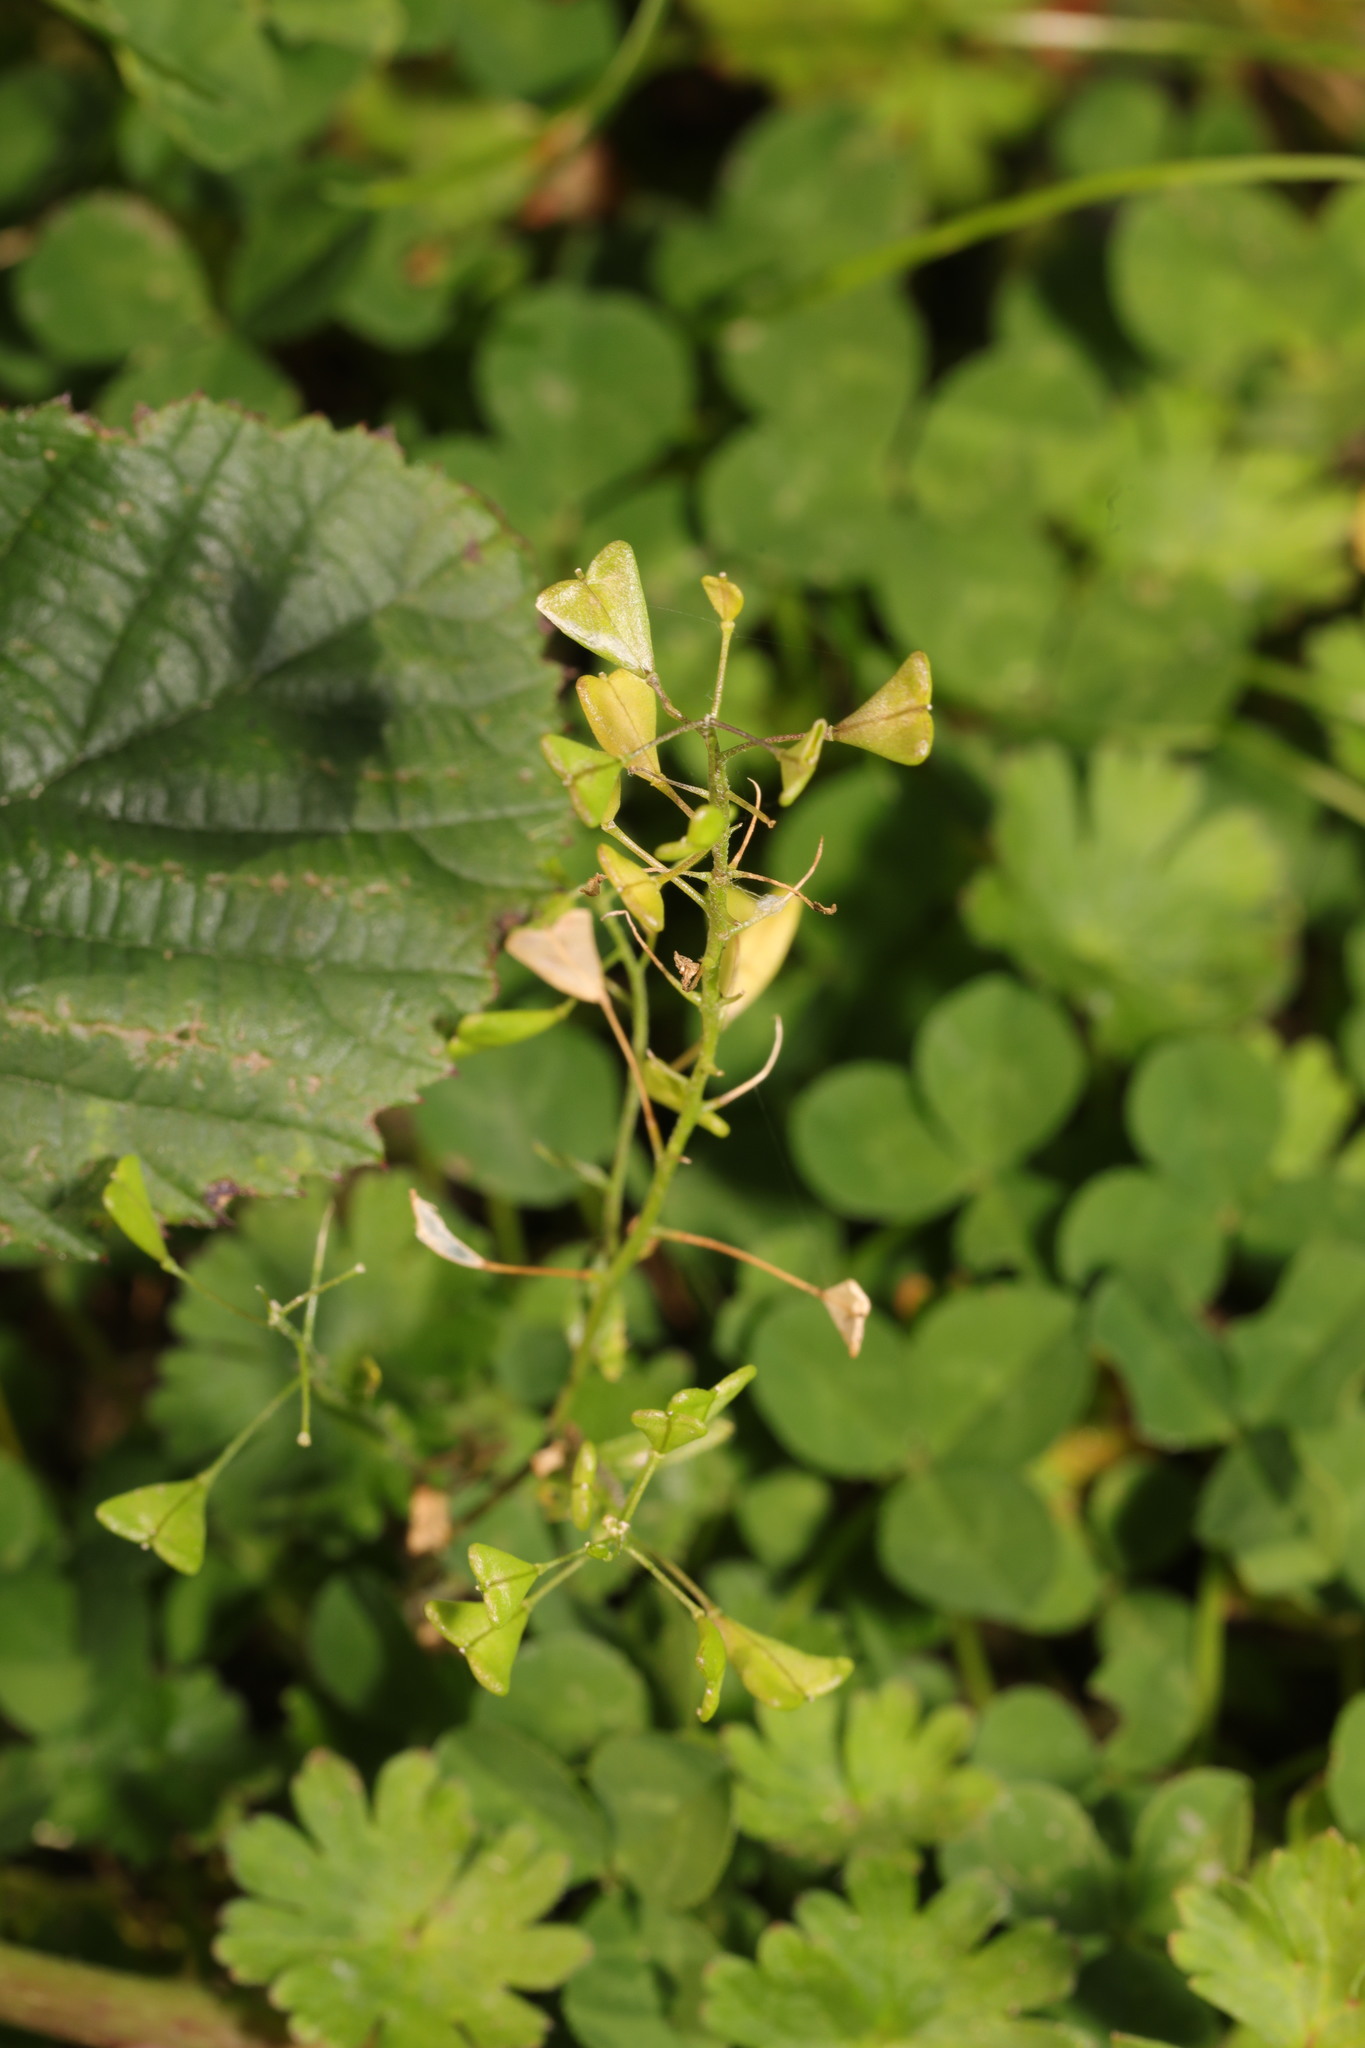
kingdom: Plantae
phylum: Tracheophyta
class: Magnoliopsida
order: Brassicales
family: Brassicaceae
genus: Capsella
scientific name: Capsella bursa-pastoris
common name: Shepherd's purse
